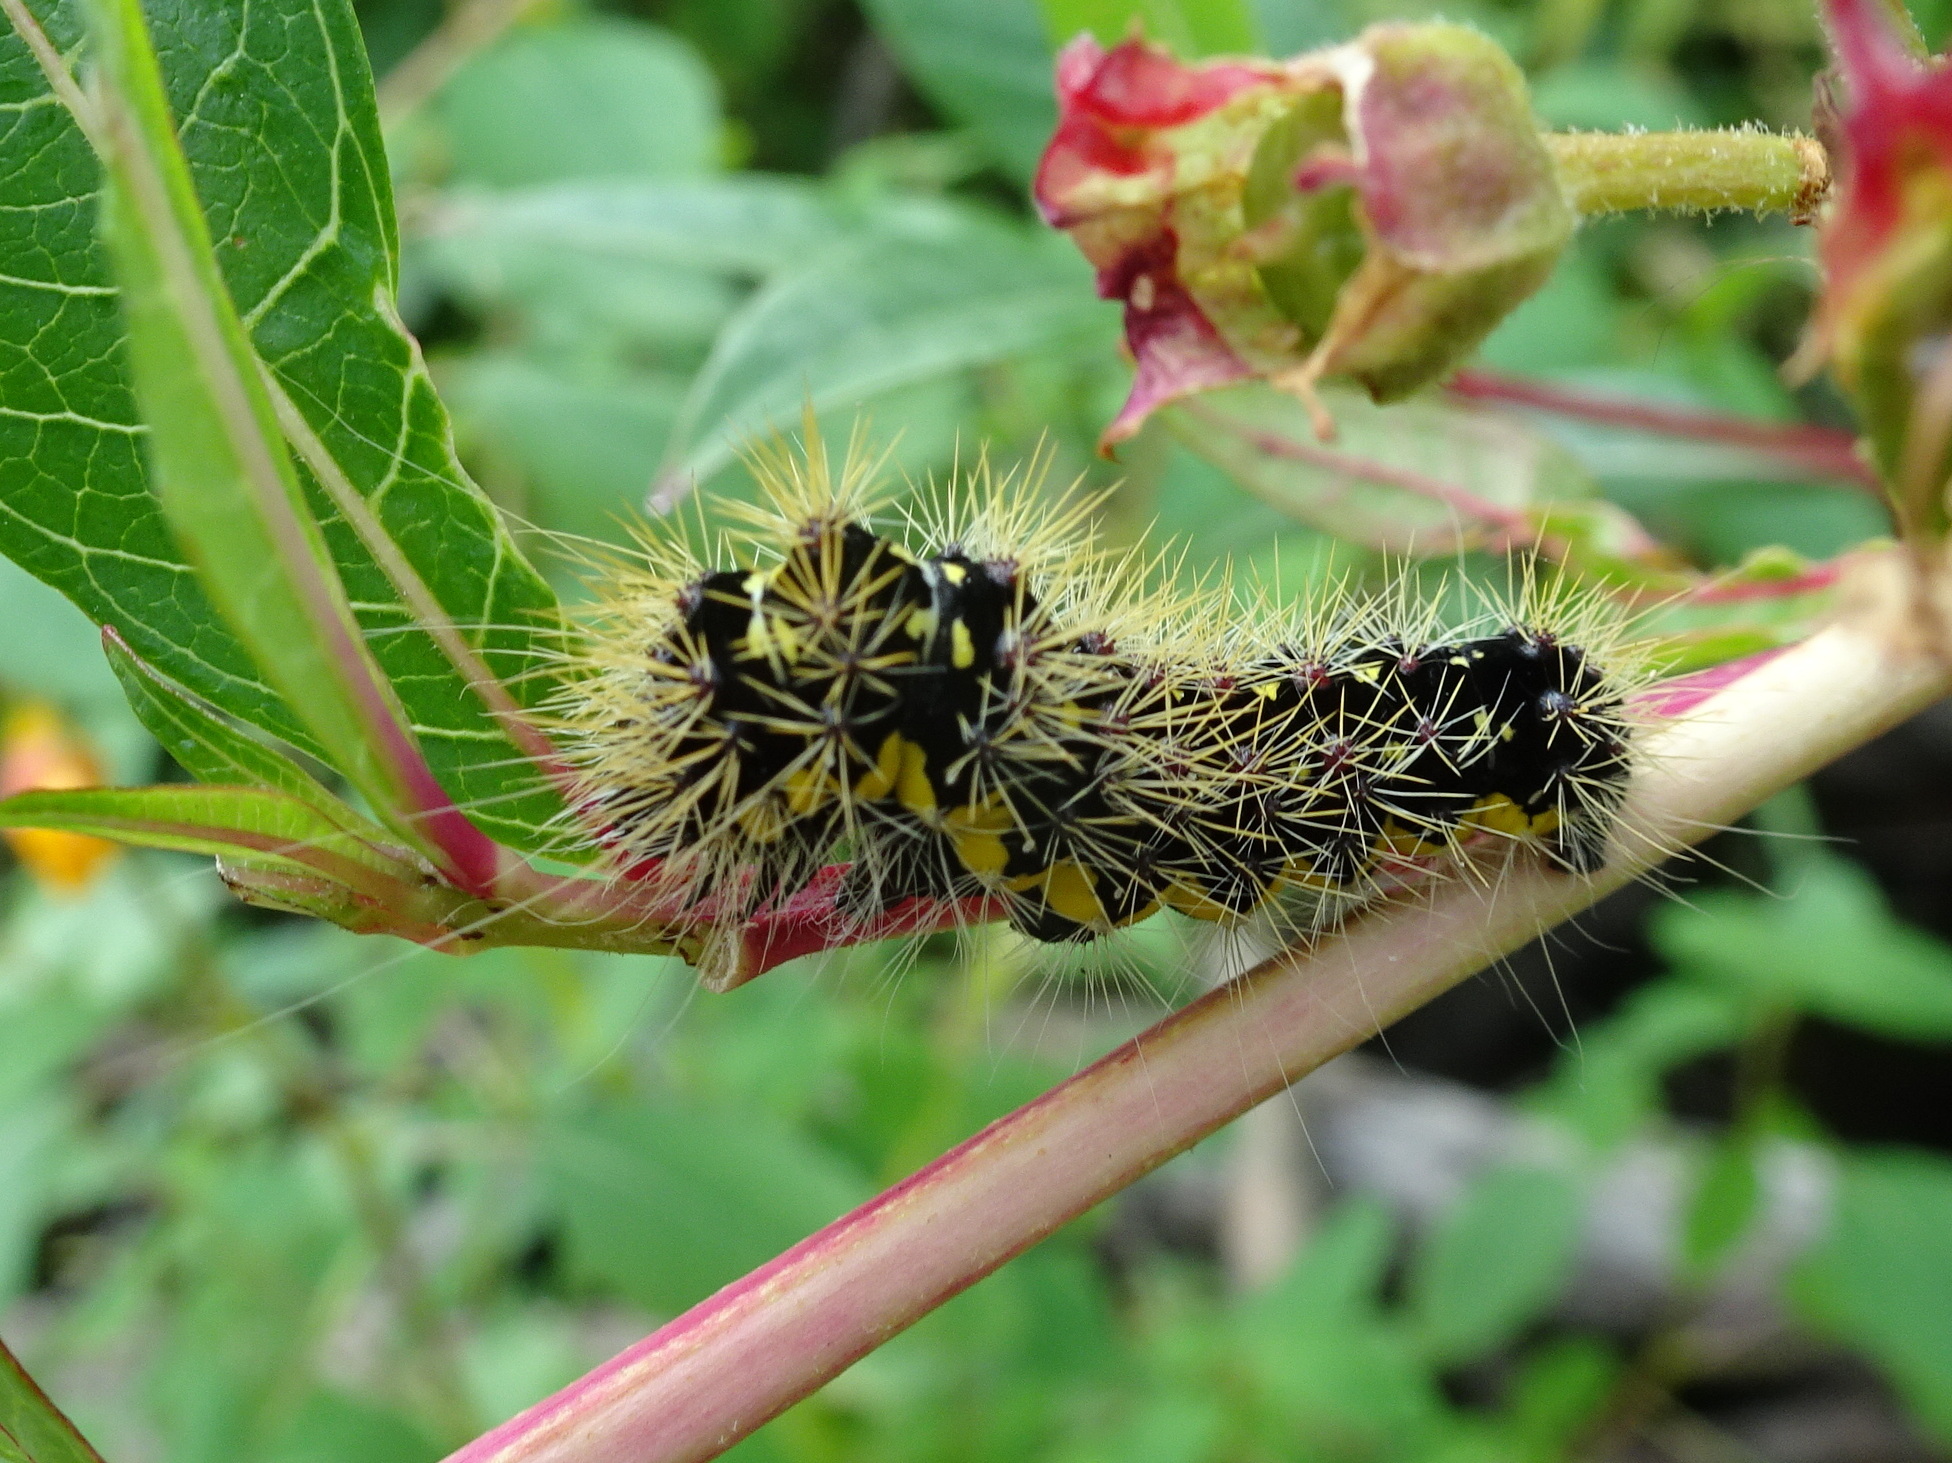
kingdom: Animalia
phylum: Arthropoda
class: Insecta
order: Lepidoptera
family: Noctuidae
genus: Acronicta
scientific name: Acronicta oblinita
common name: Smeared dagger
